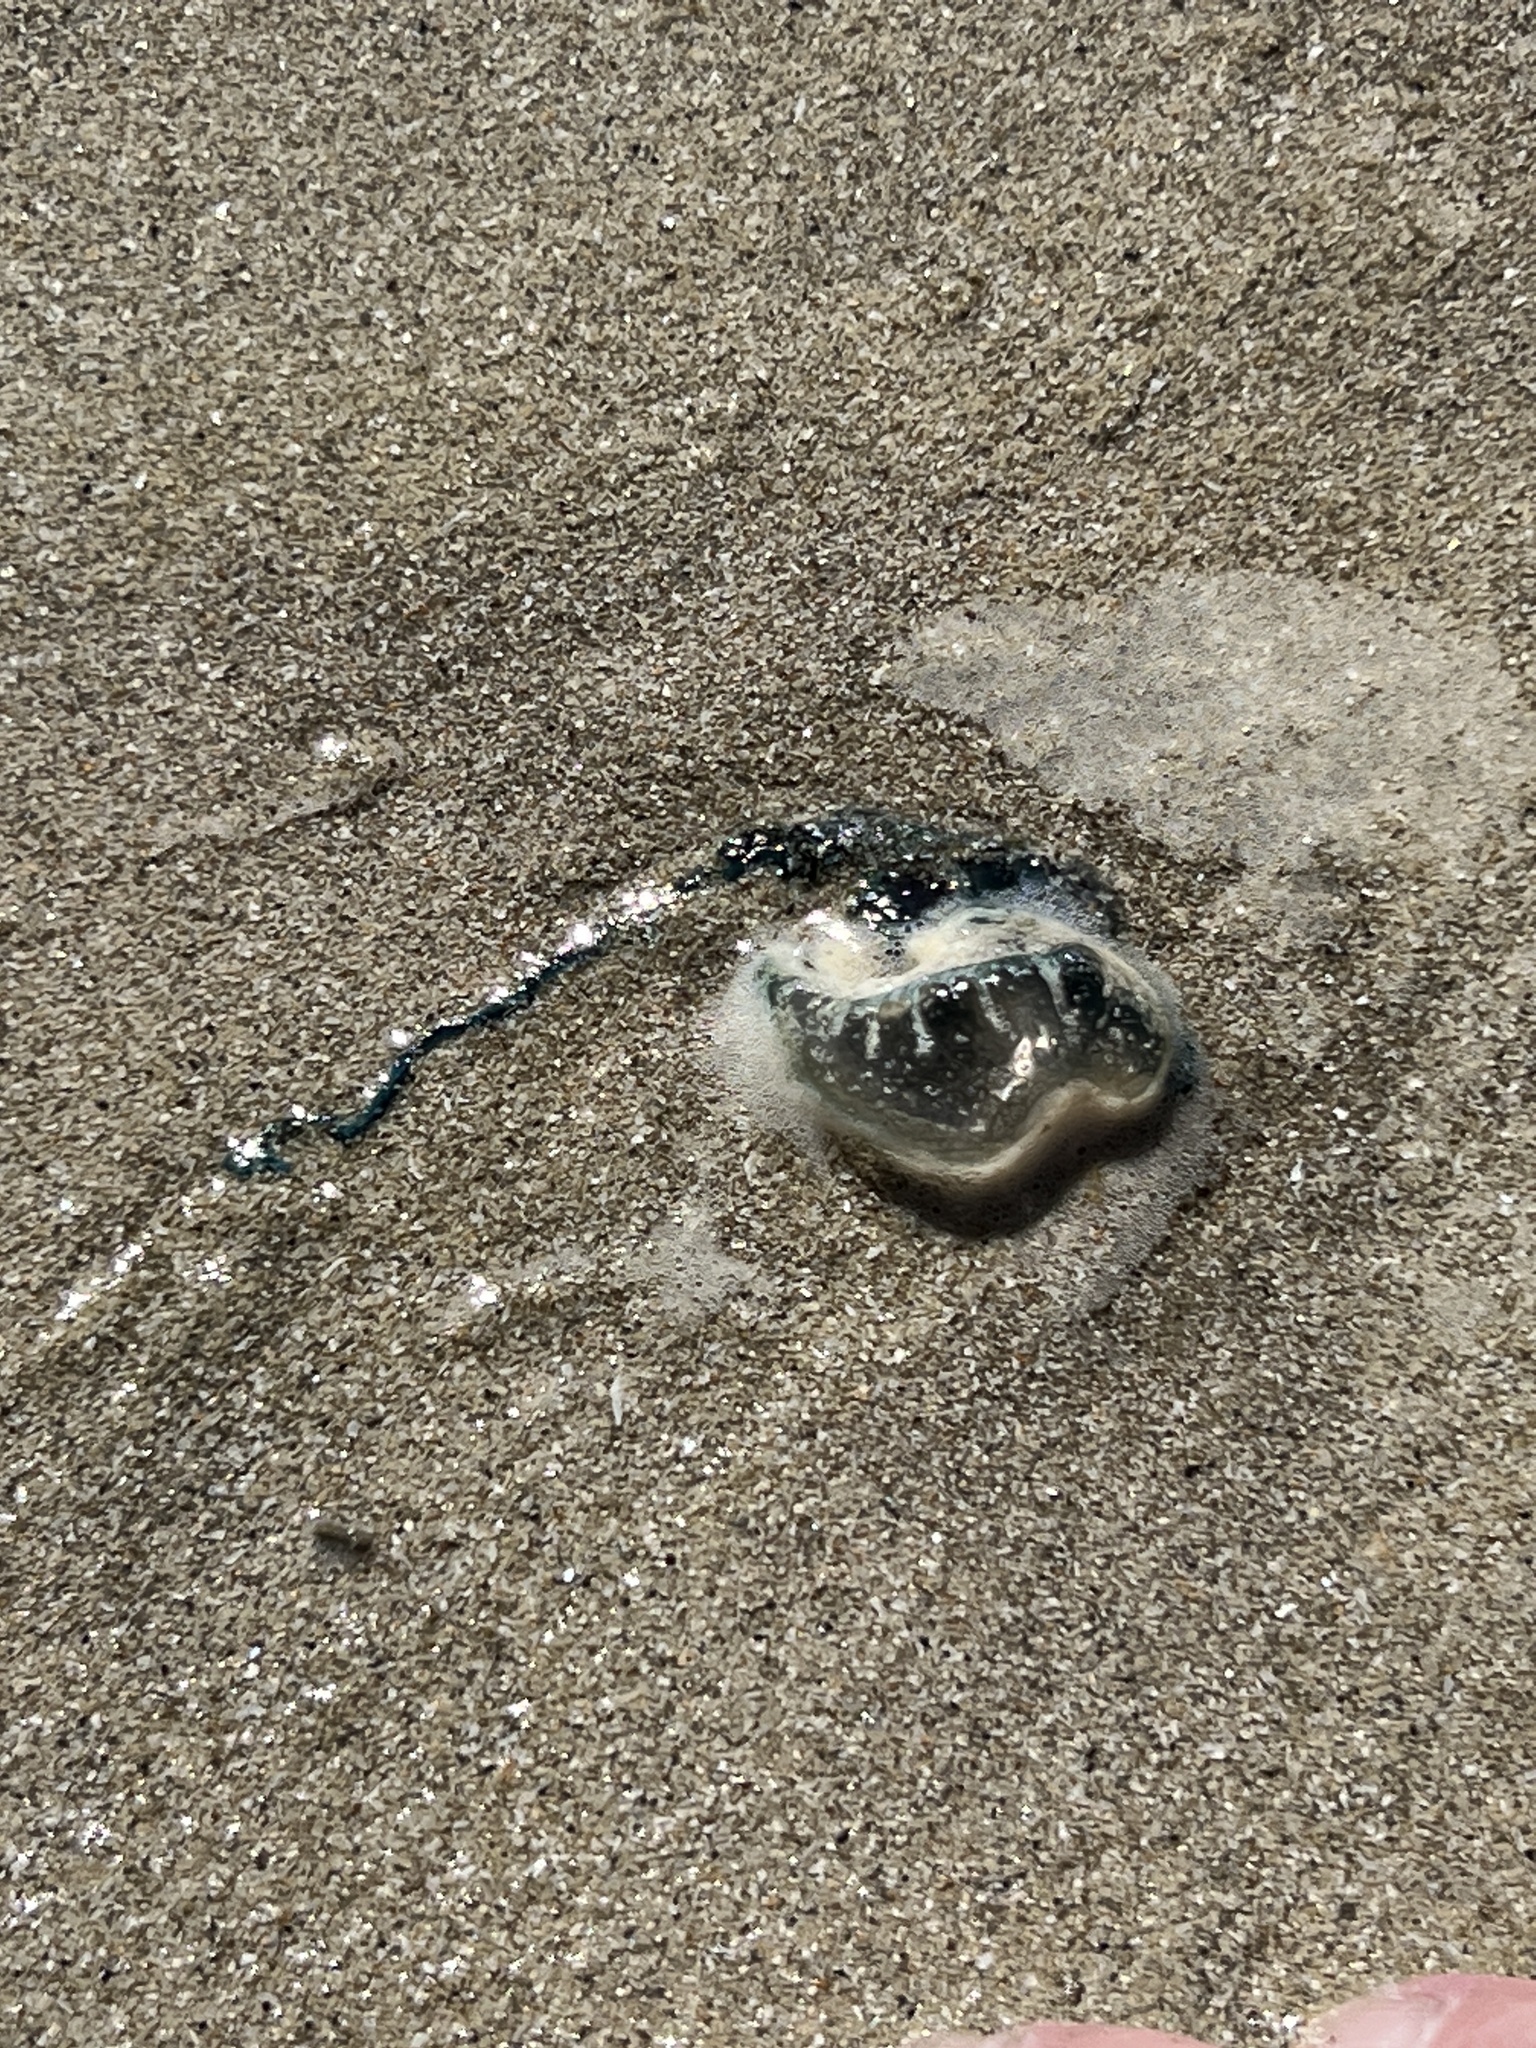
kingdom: Animalia
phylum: Cnidaria
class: Hydrozoa
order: Siphonophorae
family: Physaliidae
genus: Physalia
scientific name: Physalia physalis
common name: Portuguese man-of-war
